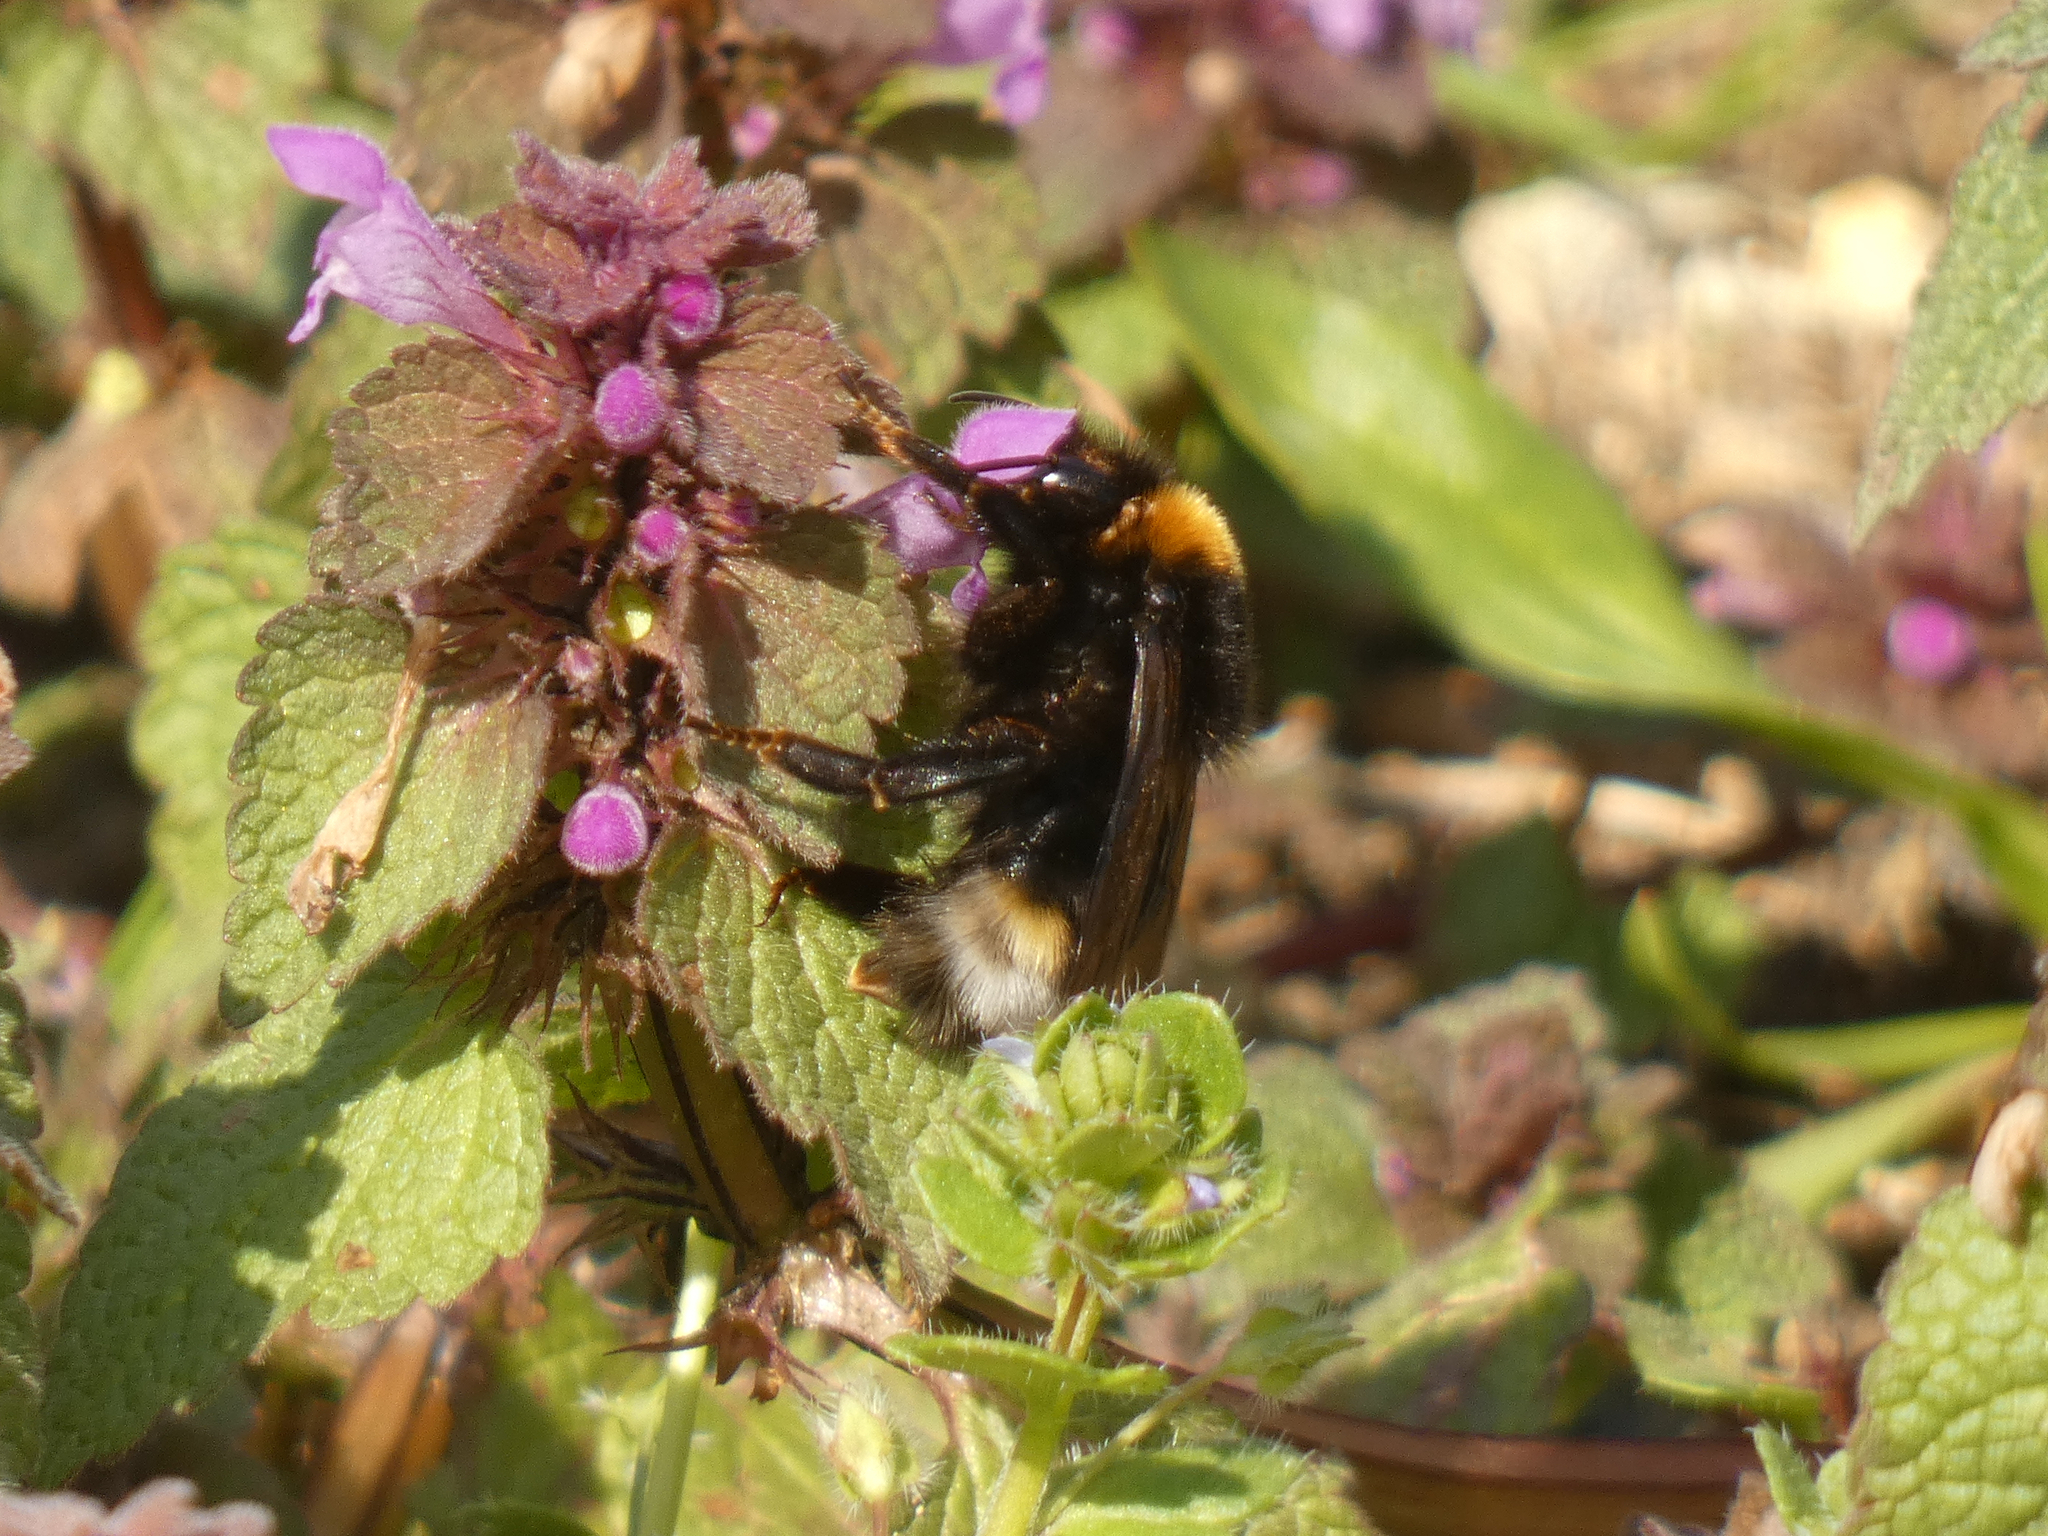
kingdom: Animalia
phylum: Arthropoda
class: Insecta
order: Hymenoptera
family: Apidae
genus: Bombus
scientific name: Bombus vestalis
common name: Vestal cuckoo bee
